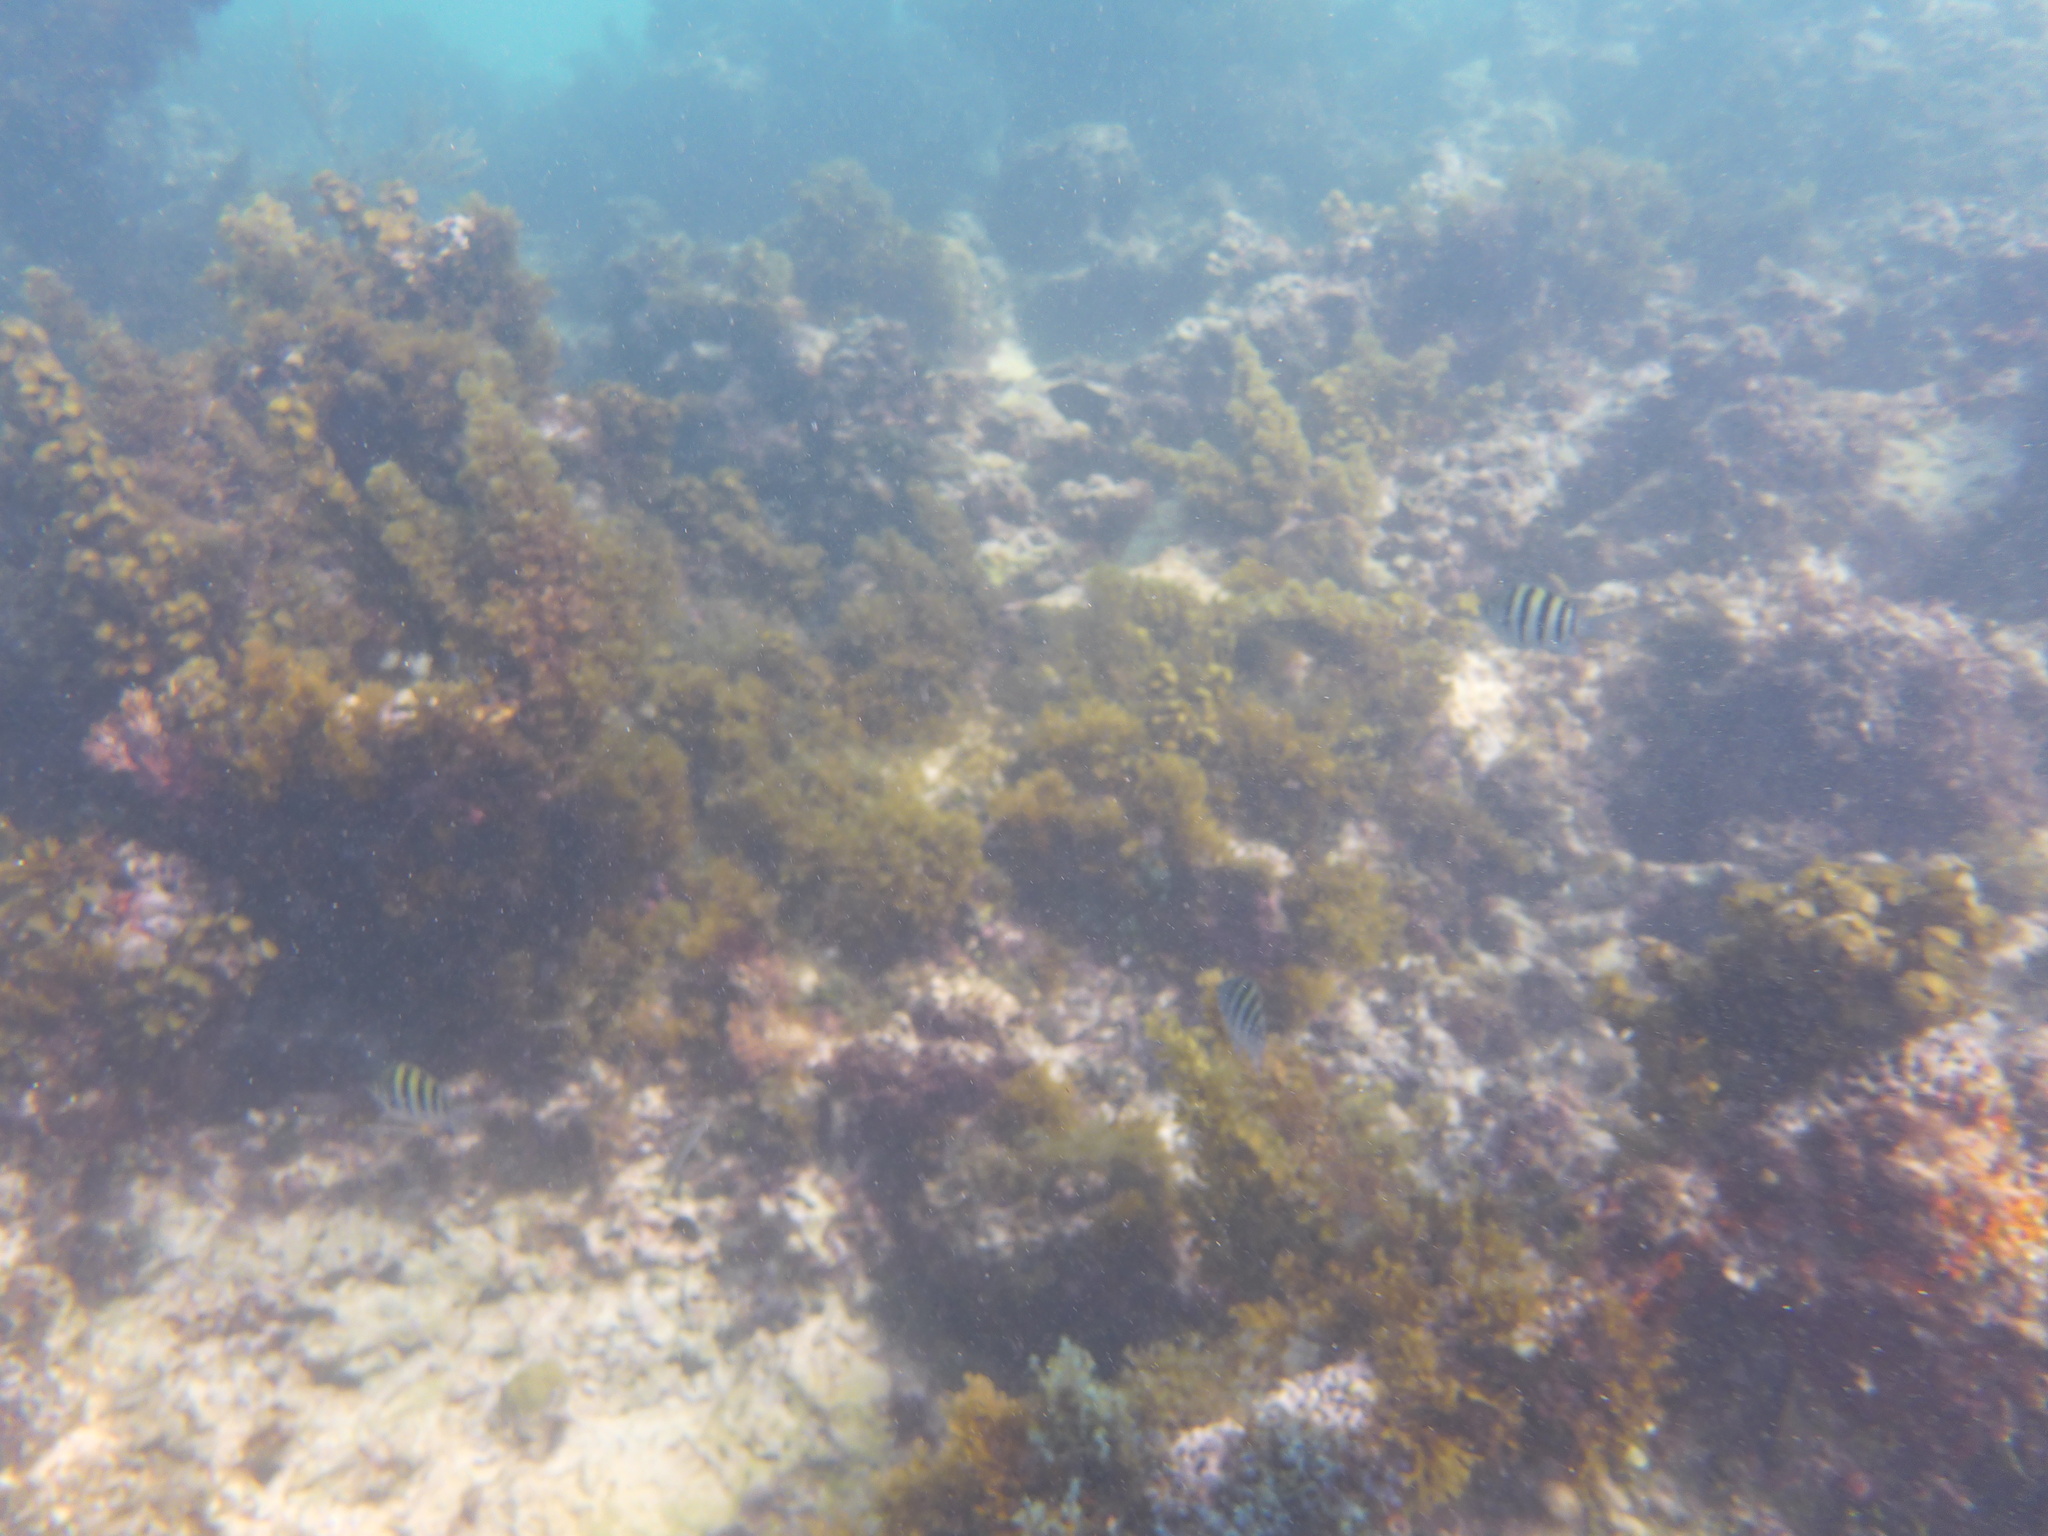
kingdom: Animalia
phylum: Chordata
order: Perciformes
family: Pomacentridae
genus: Abudefduf
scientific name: Abudefduf saxatilis
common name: Sergeant major
